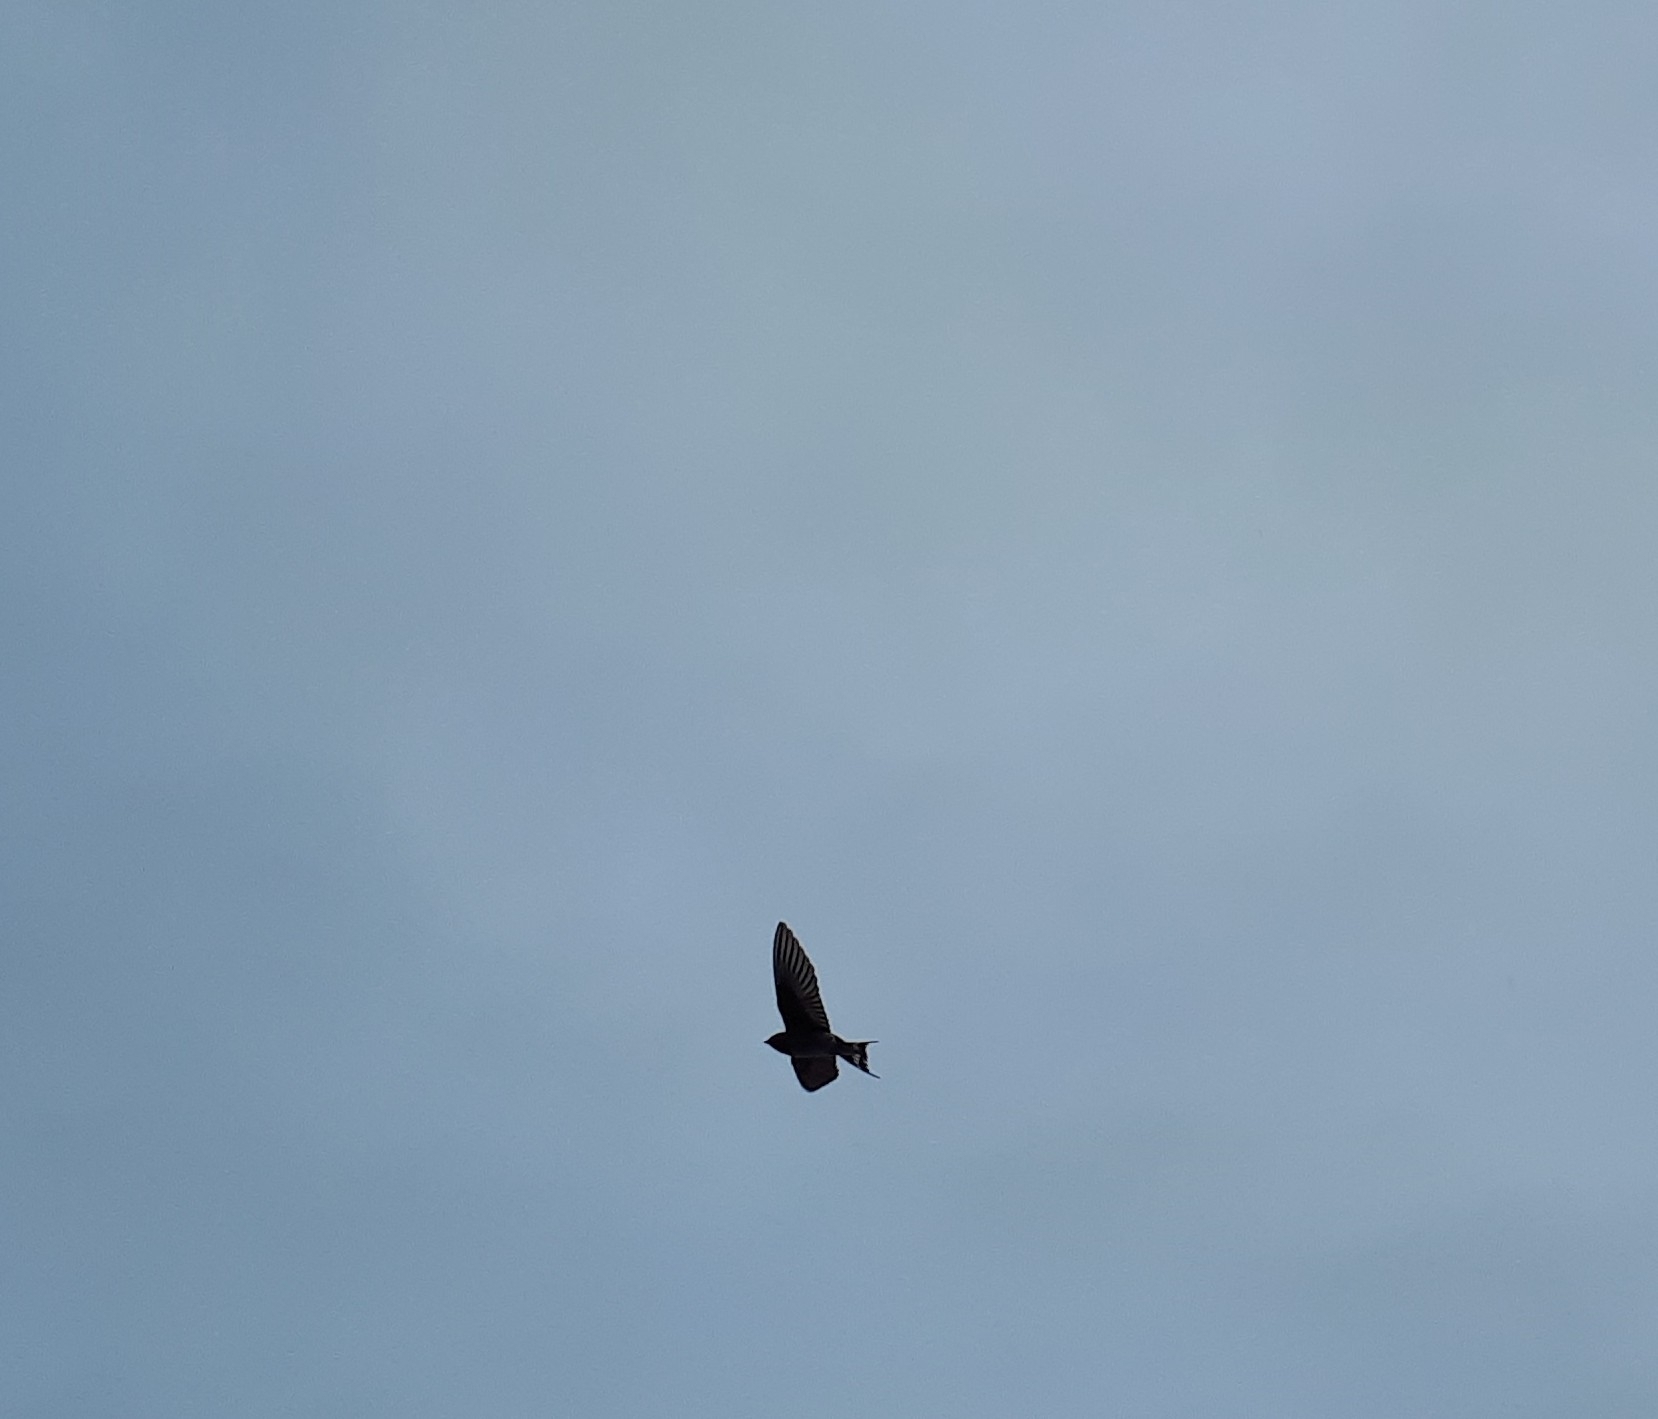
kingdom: Animalia
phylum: Chordata
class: Aves
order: Passeriformes
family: Hirundinidae
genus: Hirundo
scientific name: Hirundo neoxena
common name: Welcome swallow
